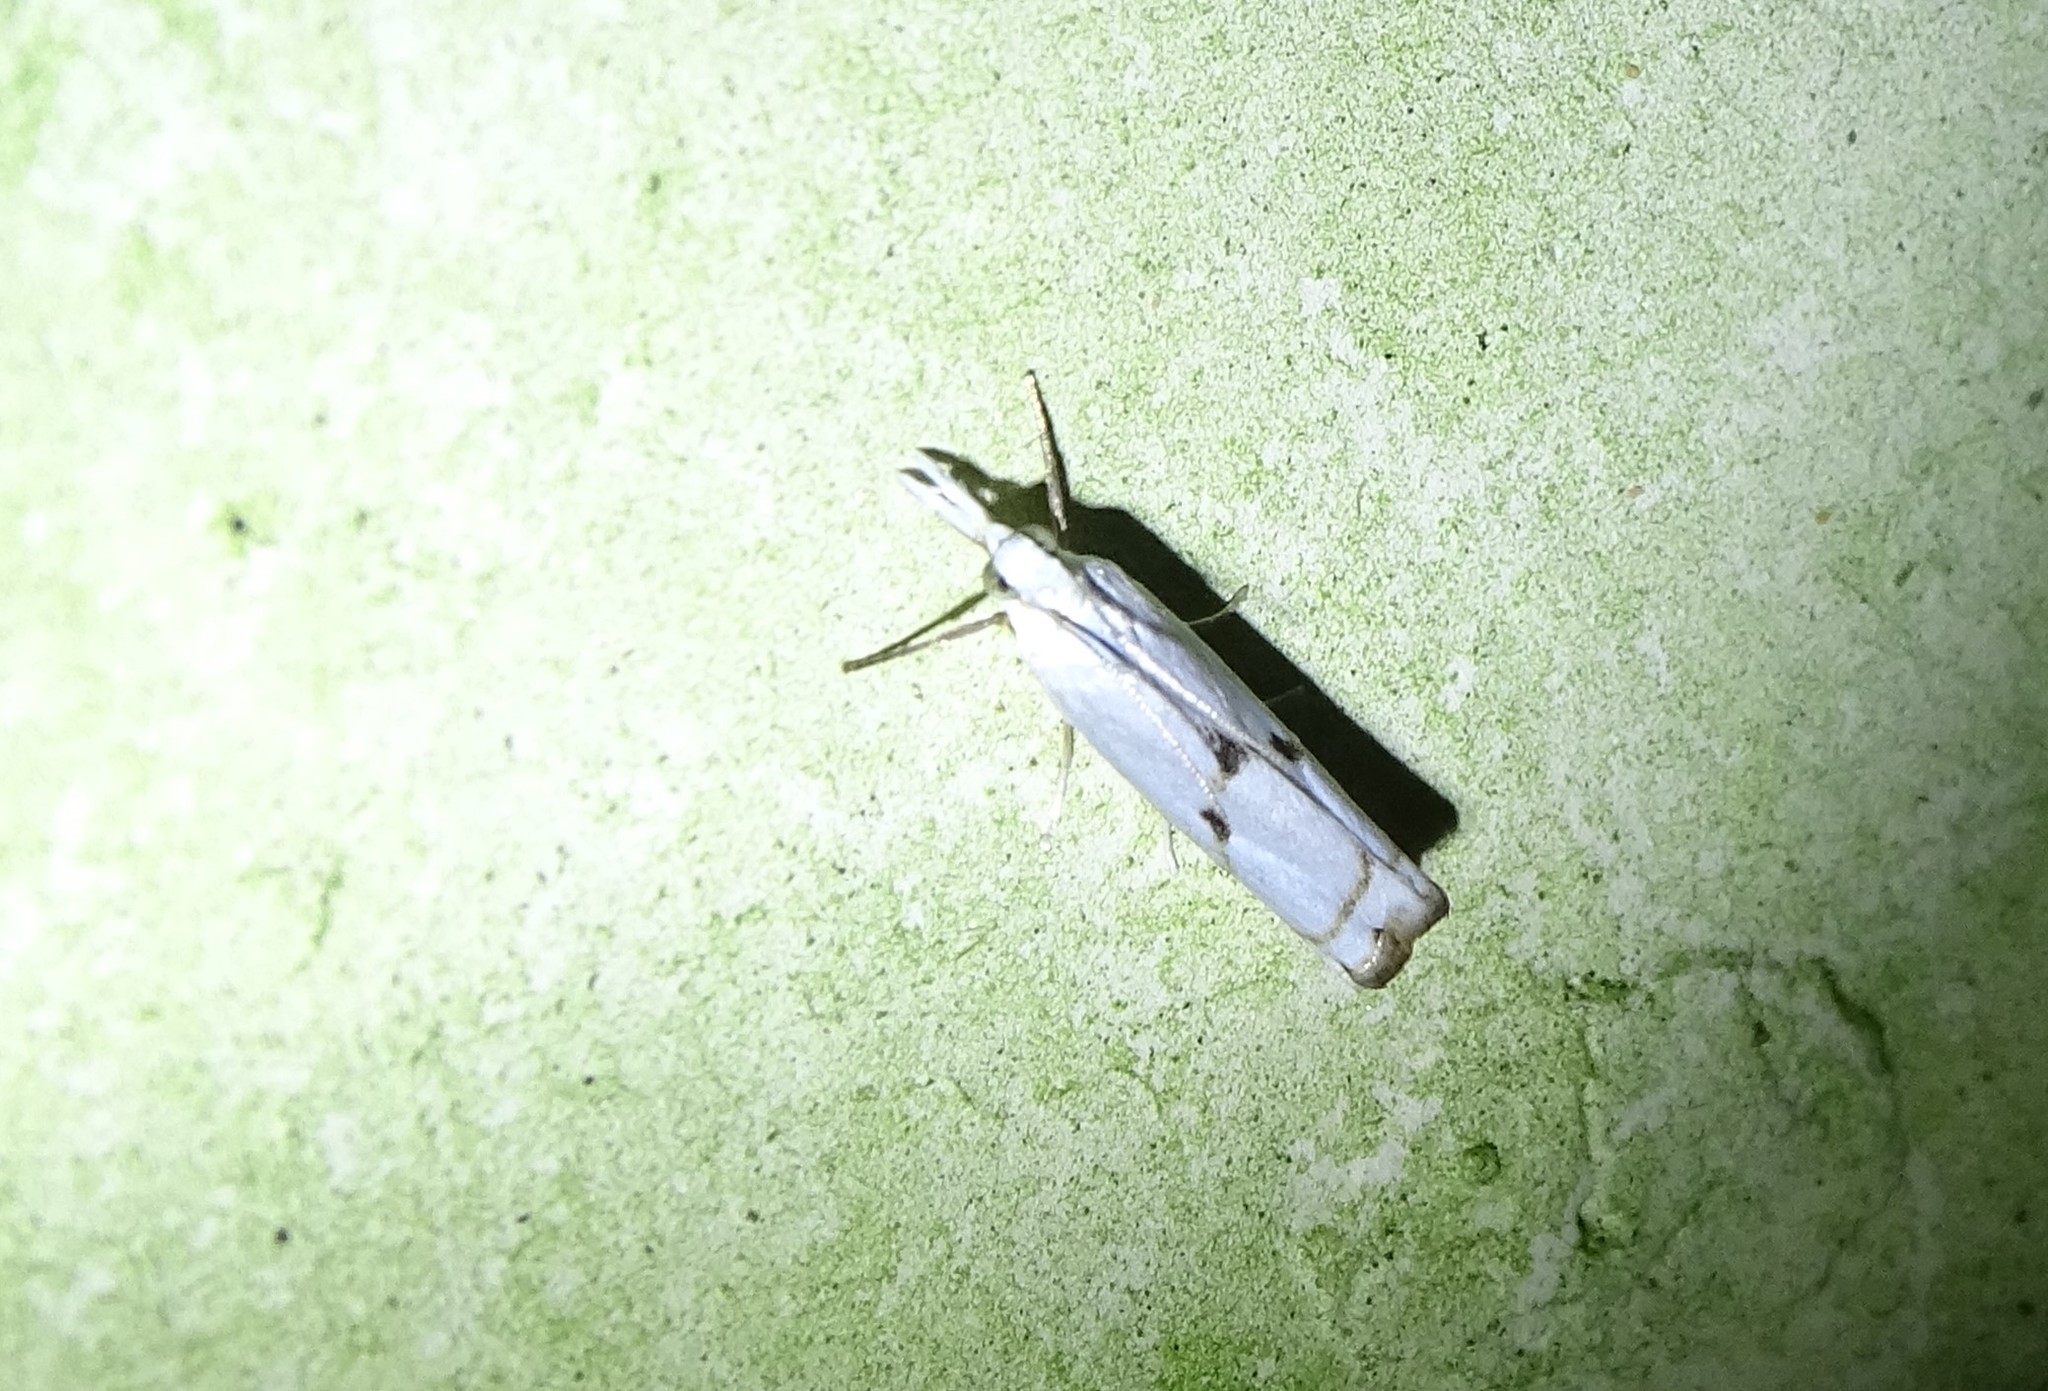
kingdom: Animalia
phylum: Arthropoda
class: Insecta
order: Lepidoptera
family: Crambidae
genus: Microcrambus
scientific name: Microcrambus biguttellus
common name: Gold-stripe grass-veneer moth
